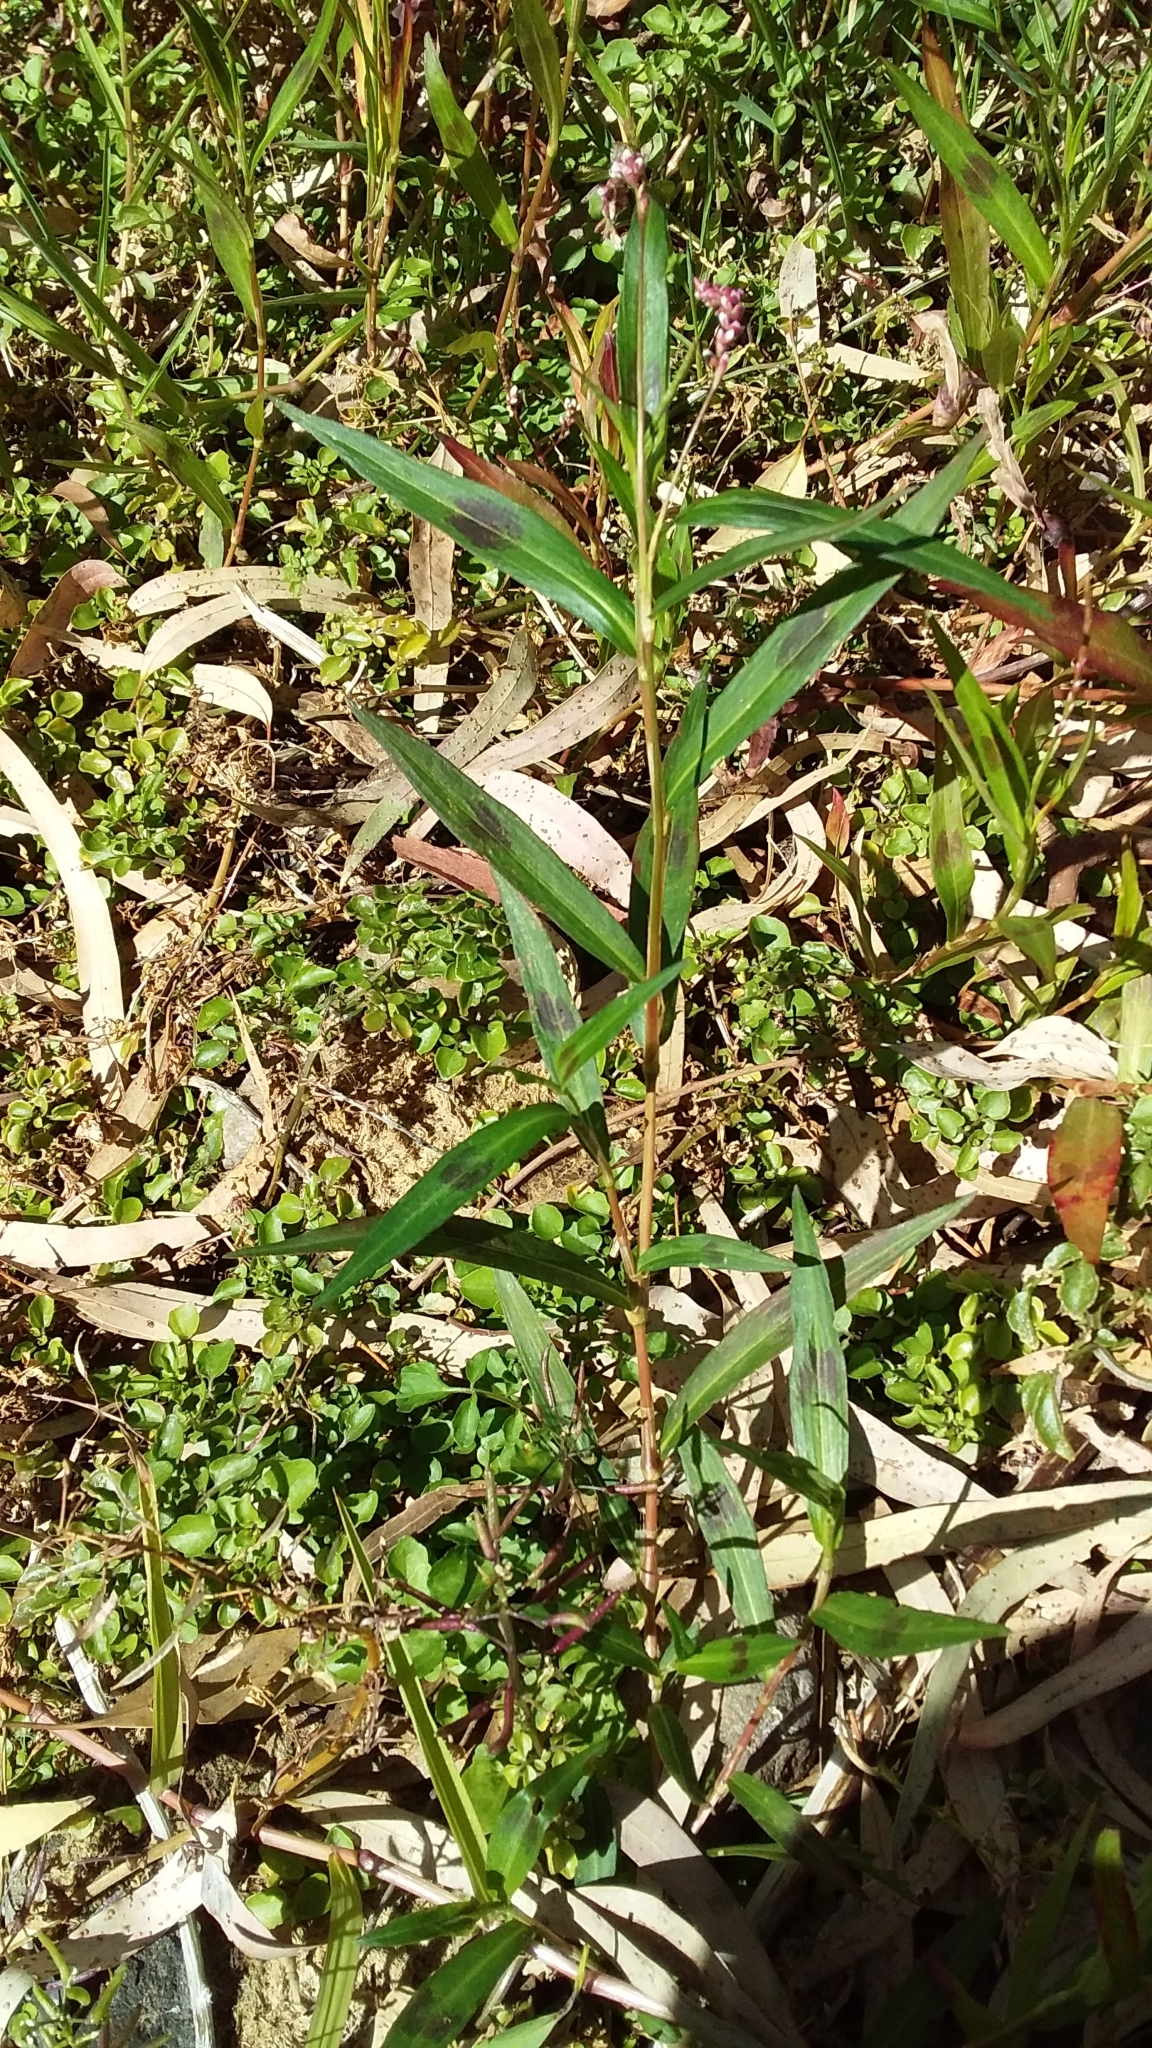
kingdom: Plantae
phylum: Tracheophyta
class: Magnoliopsida
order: Caryophyllales
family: Polygonaceae
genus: Persicaria
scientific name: Persicaria decipiens
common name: Willow-weed
